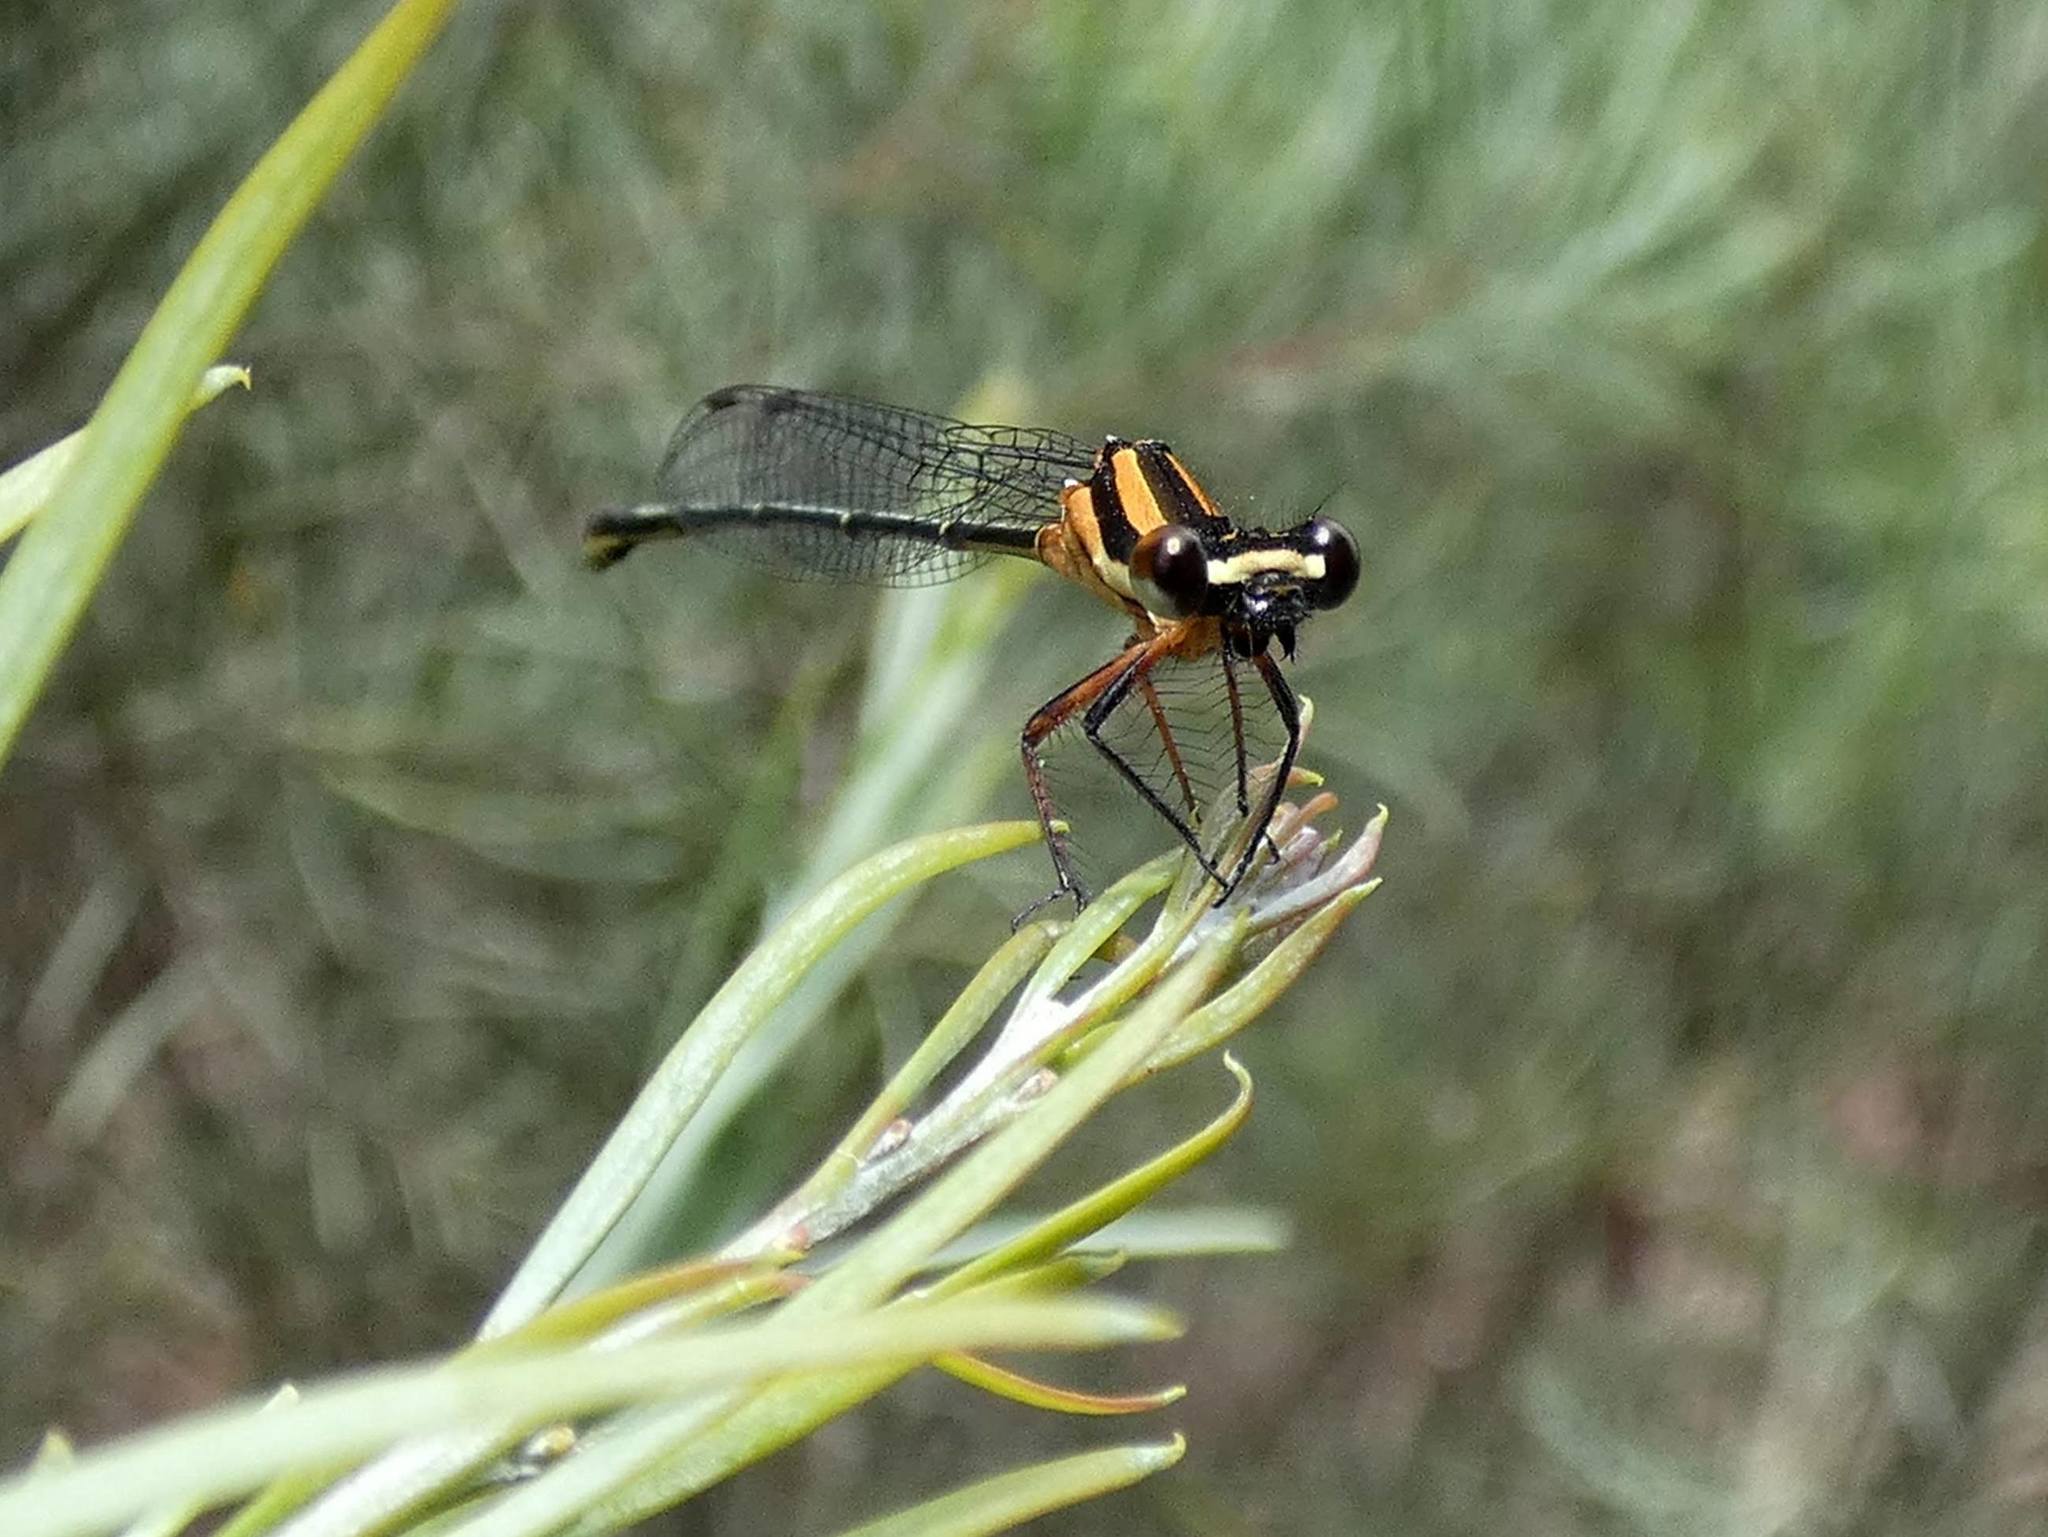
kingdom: Animalia
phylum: Arthropoda
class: Insecta
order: Odonata
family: Platycnemididae
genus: Nososticta
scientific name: Nososticta solida
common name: Orange threadtail
